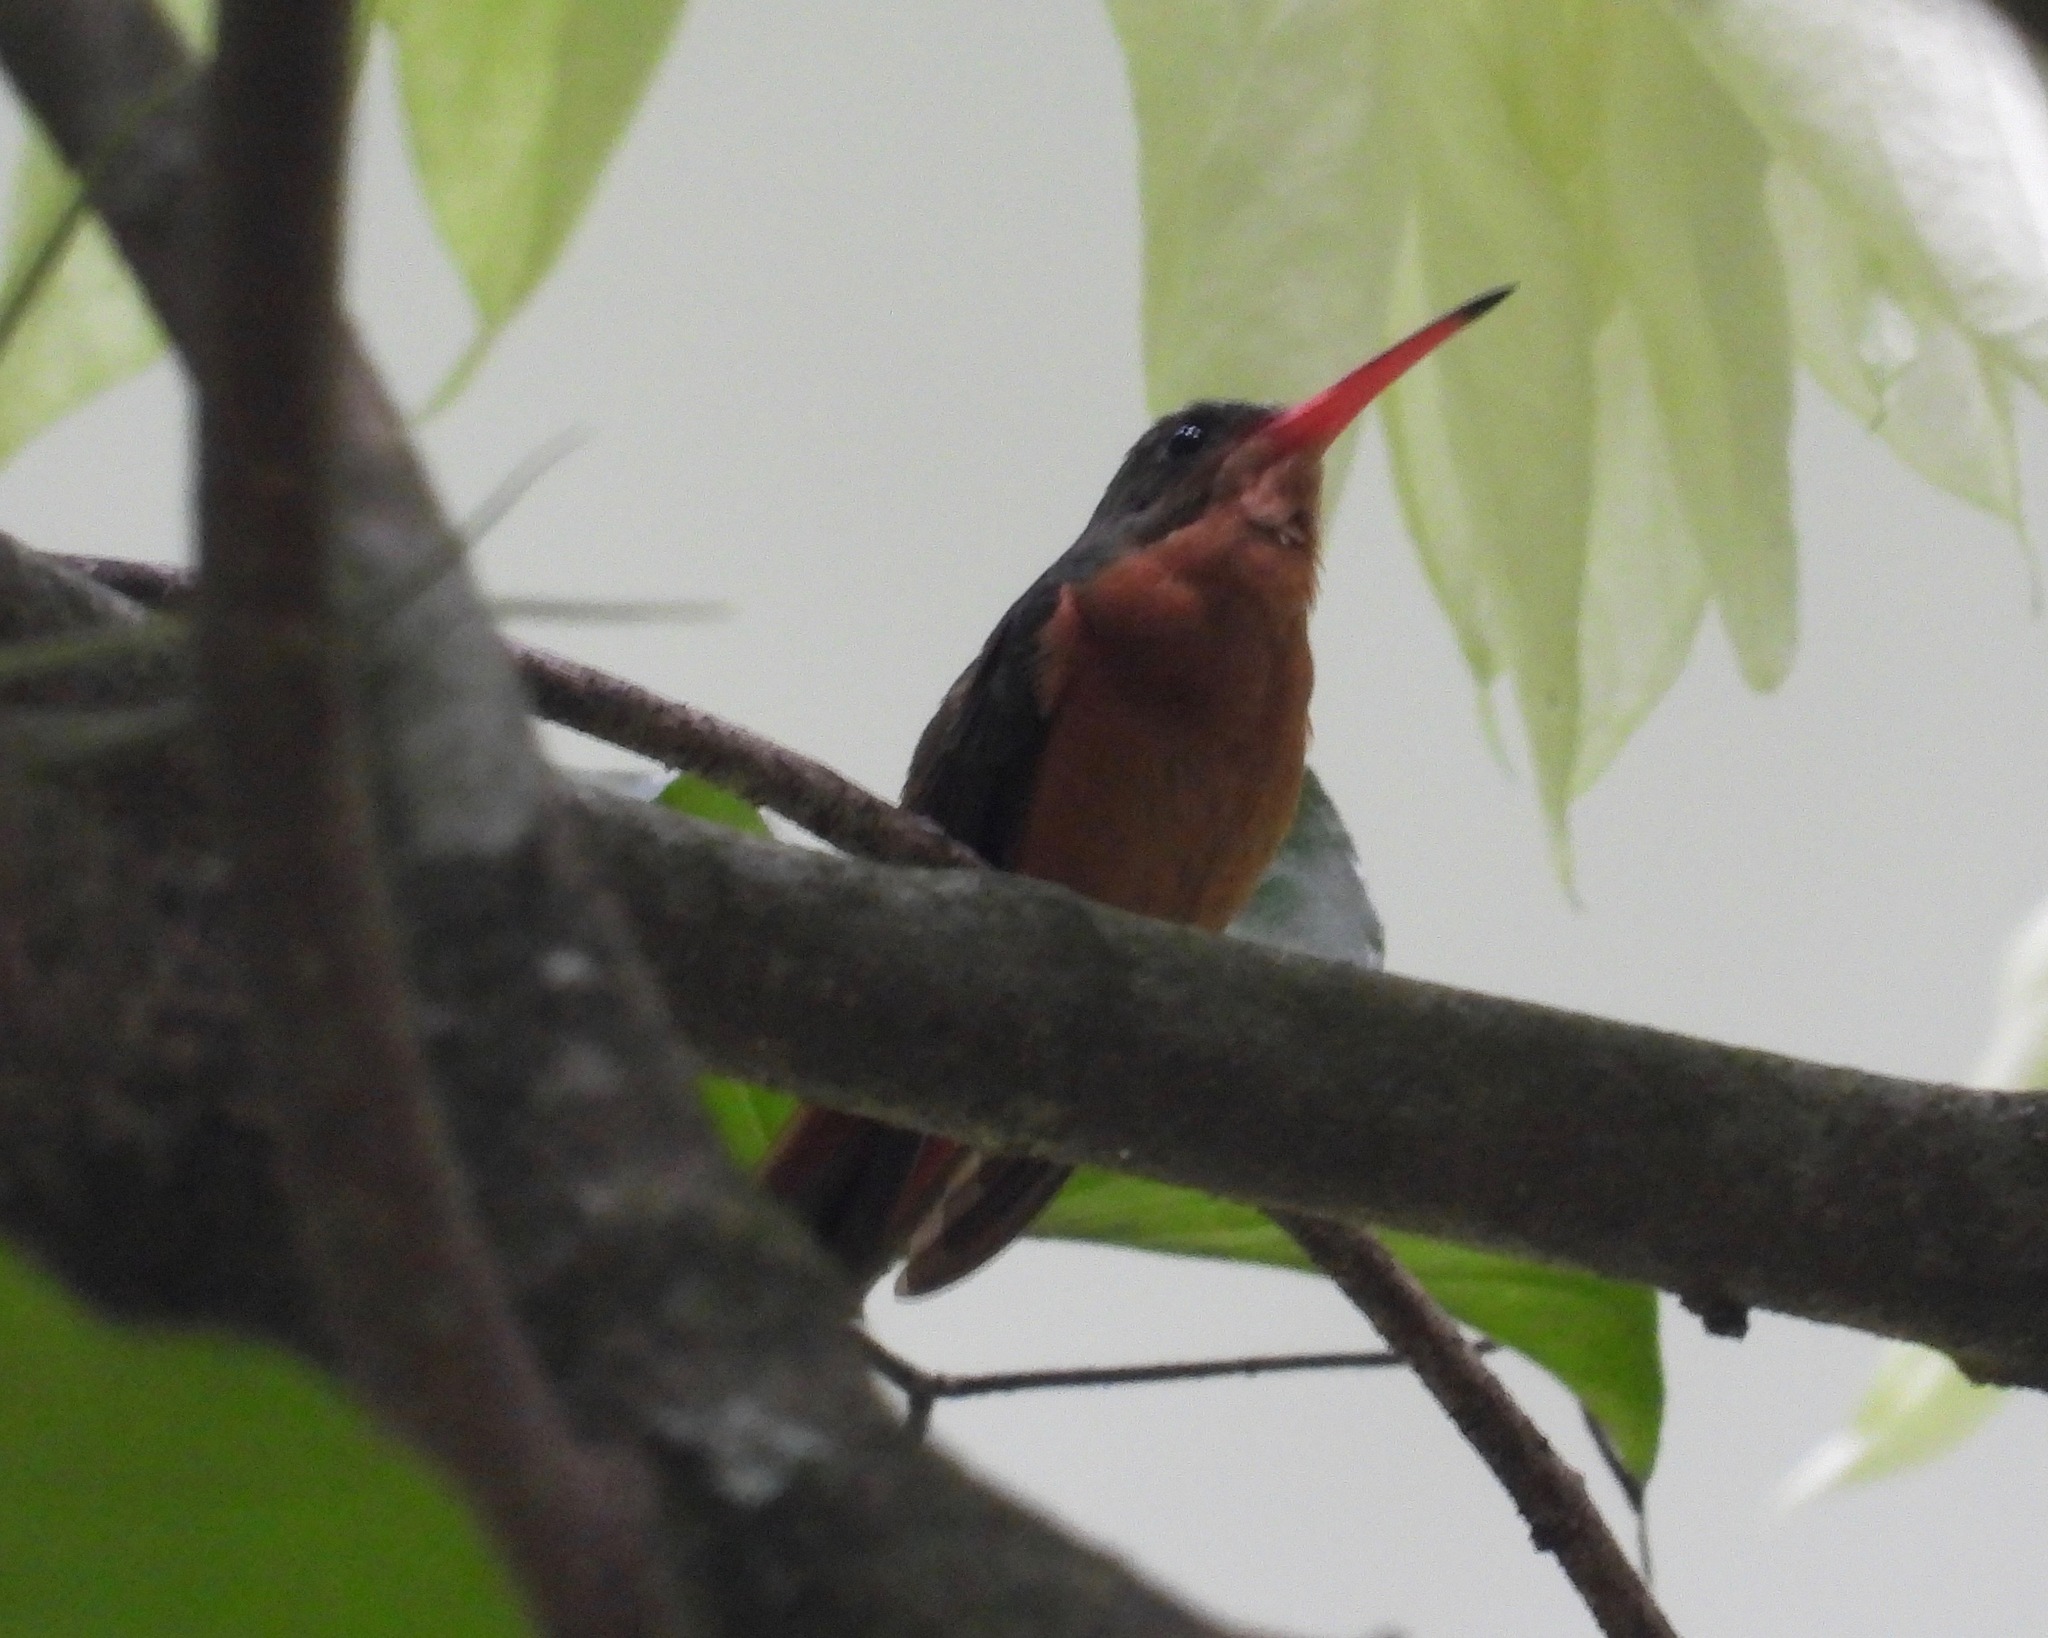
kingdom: Animalia
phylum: Chordata
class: Aves
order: Apodiformes
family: Trochilidae
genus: Amazilia
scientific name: Amazilia rutila
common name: Cinnamon hummingbird
